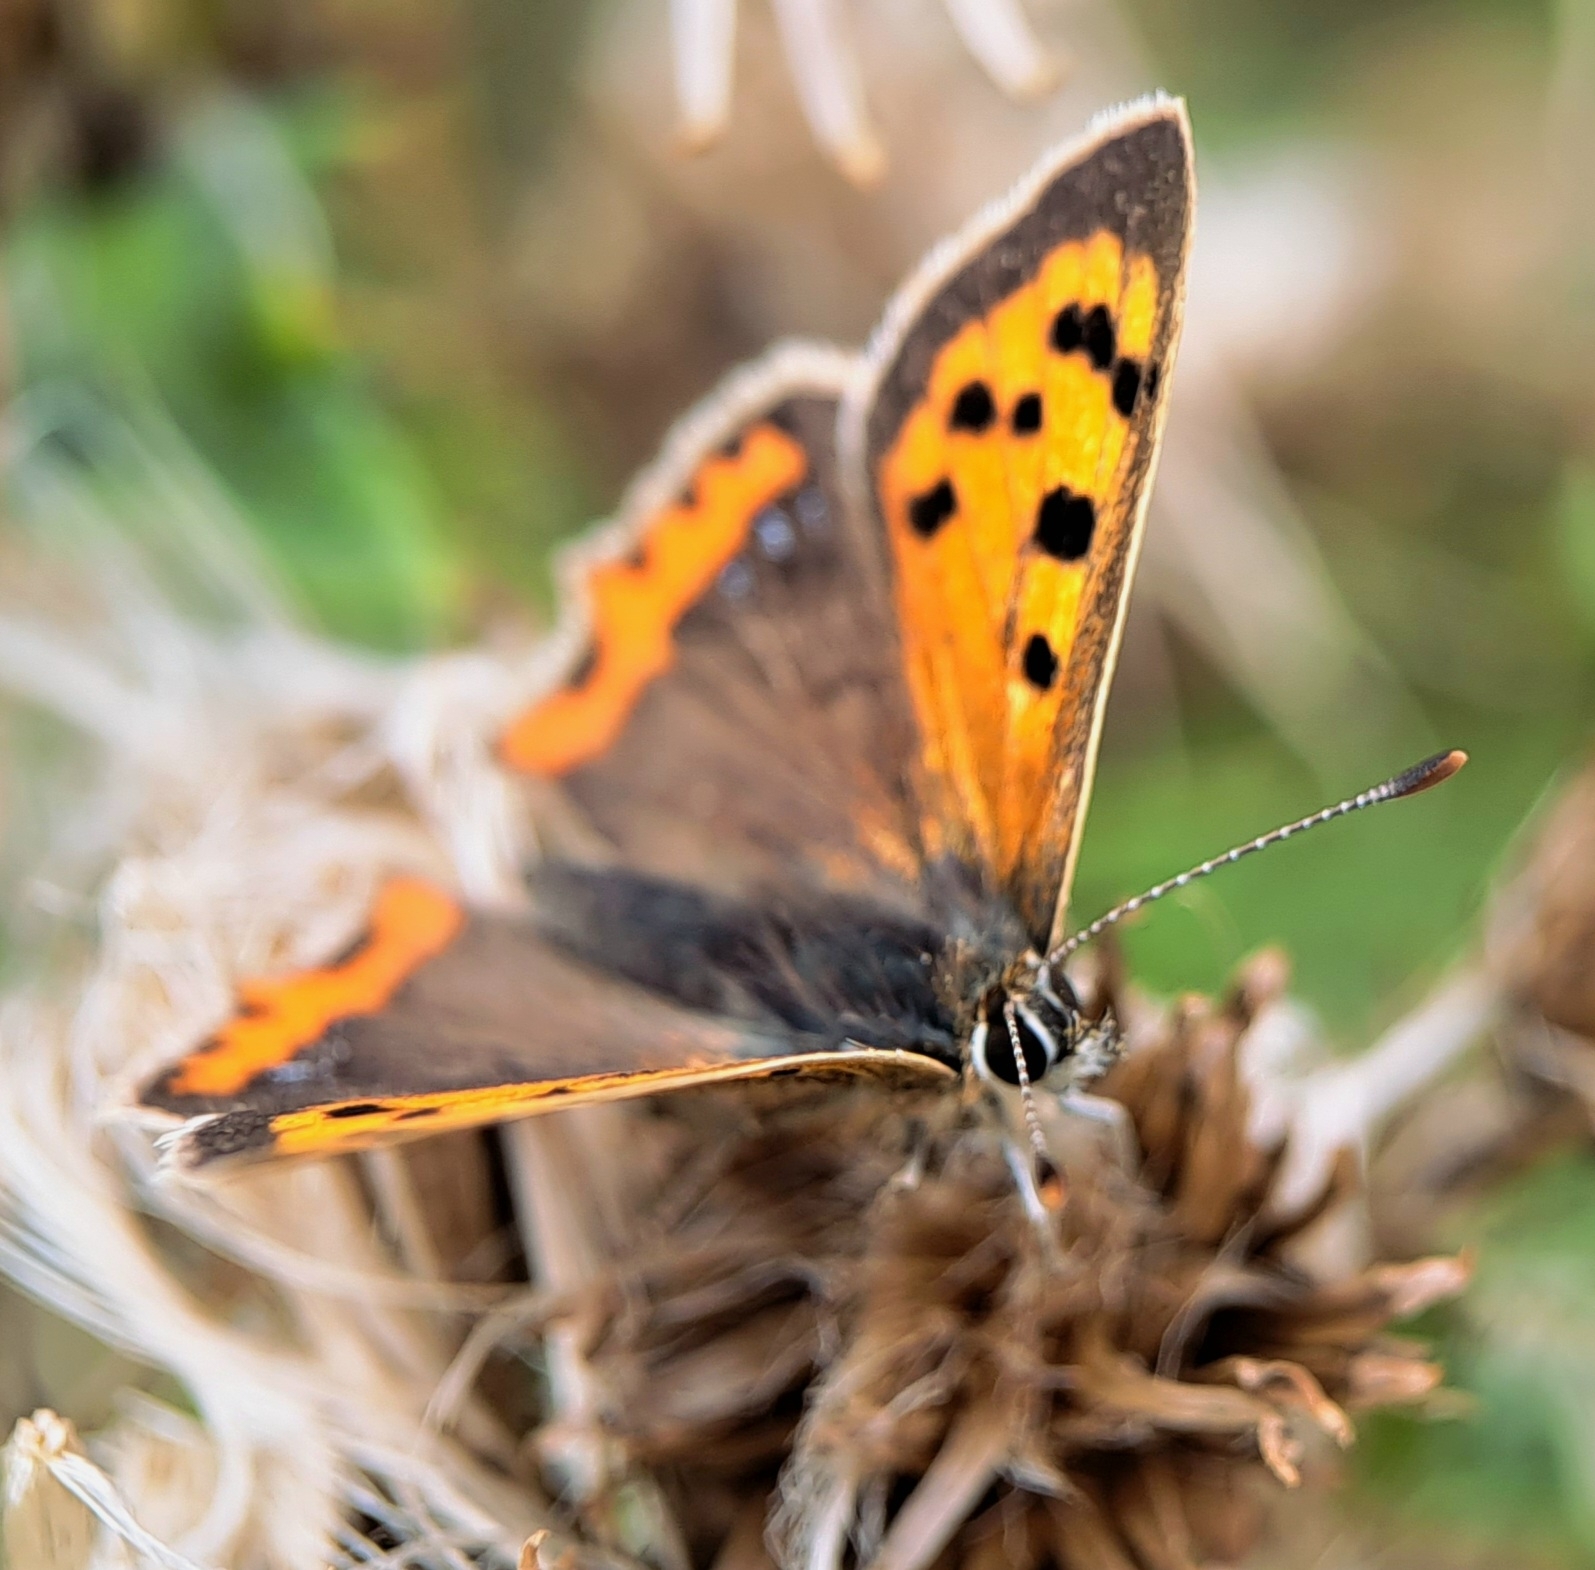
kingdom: Animalia
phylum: Arthropoda
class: Insecta
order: Lepidoptera
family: Lycaenidae
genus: Lycaena
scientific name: Lycaena phlaeas
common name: Small copper
